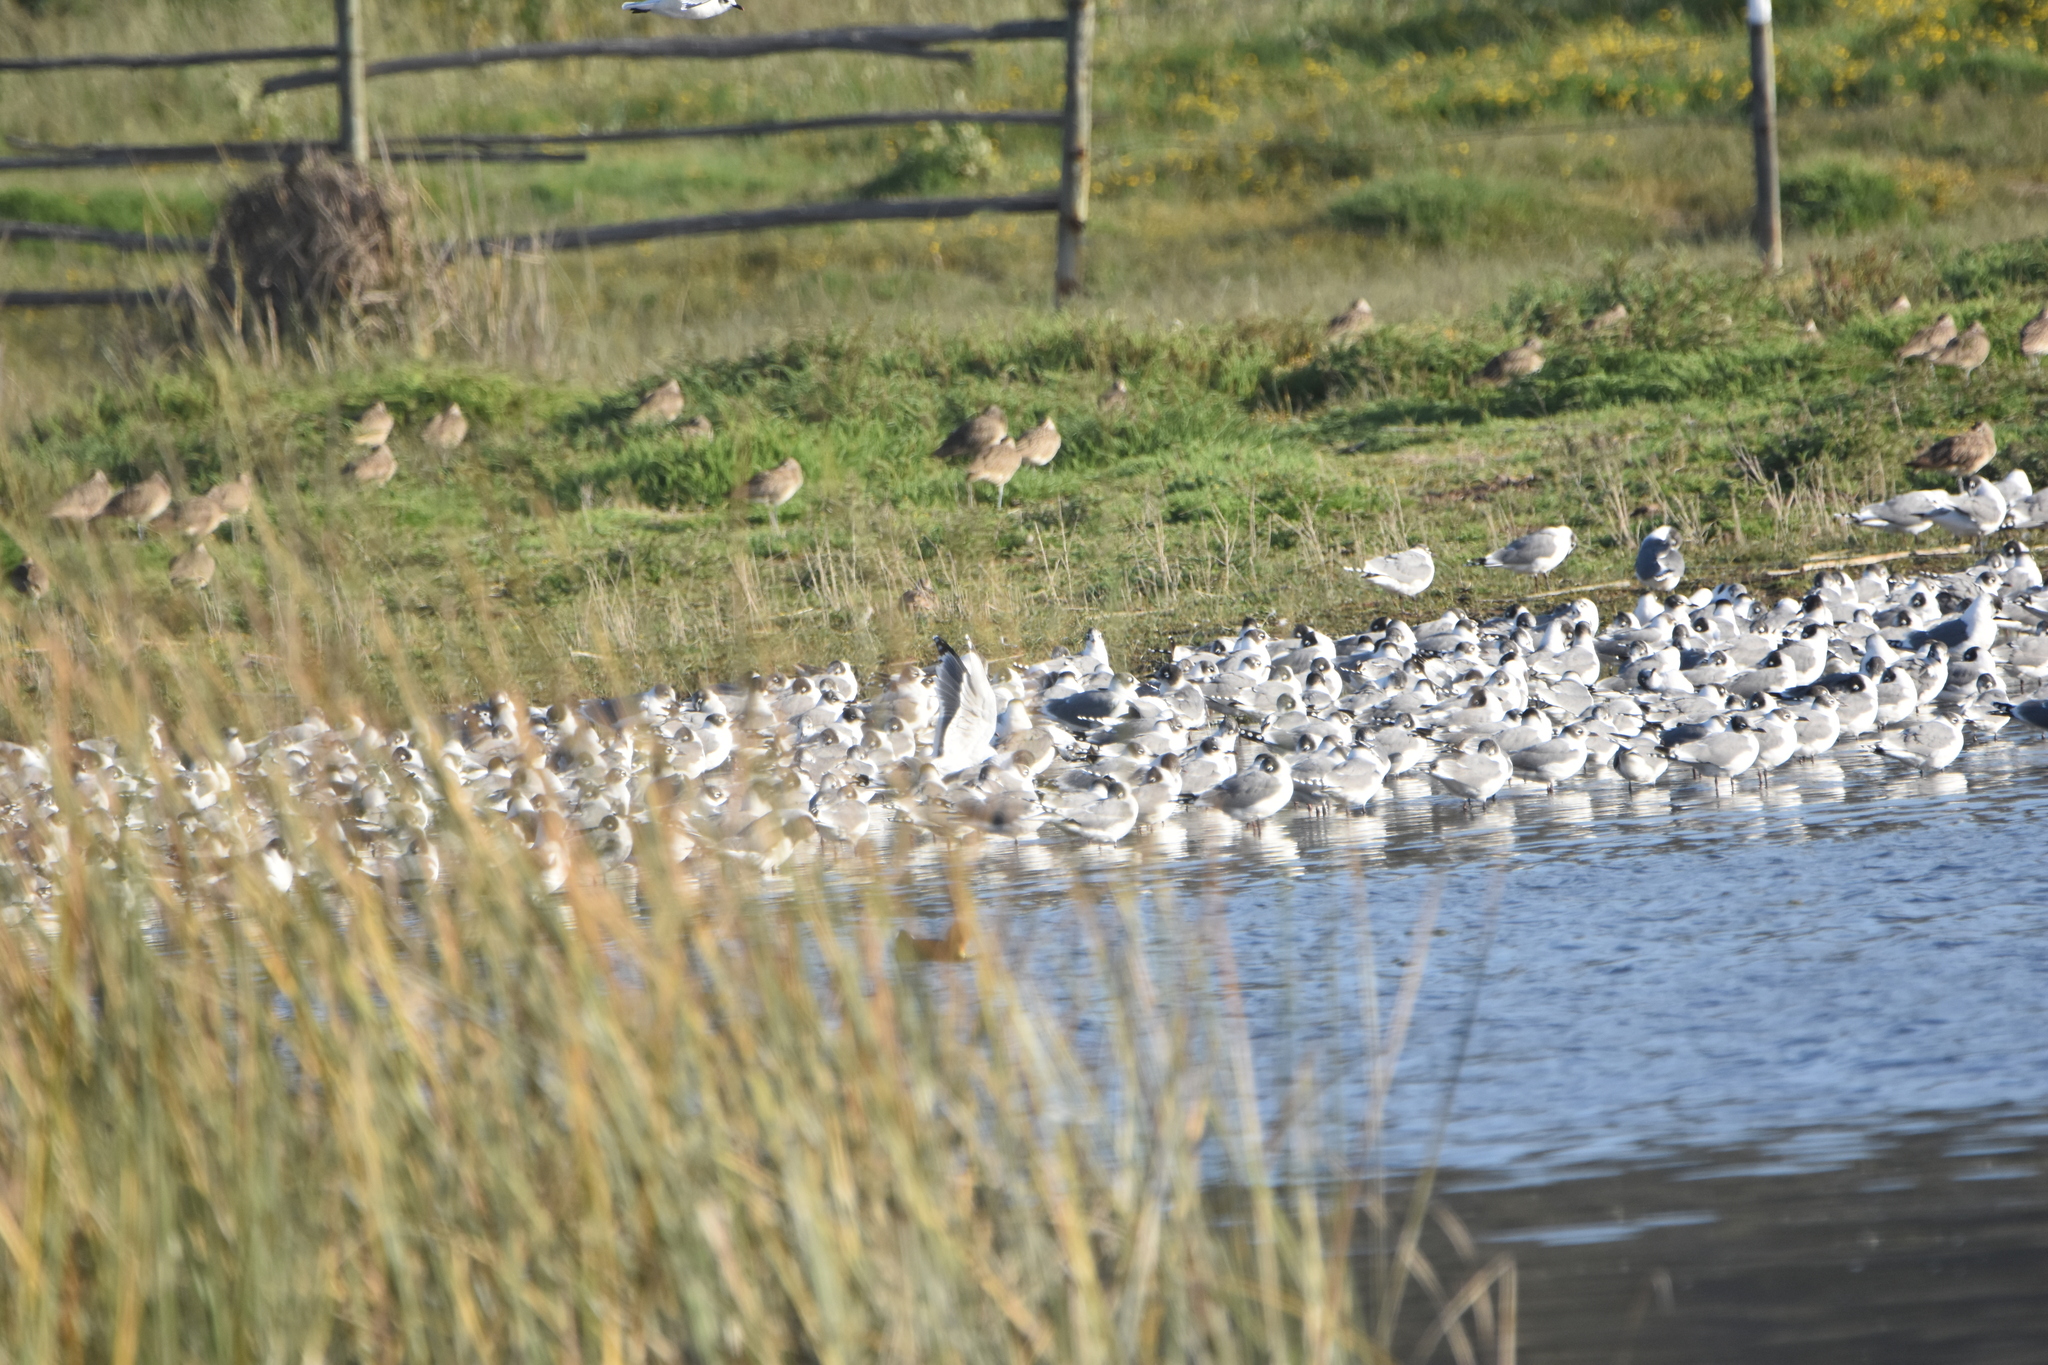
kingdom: Animalia
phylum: Chordata
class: Aves
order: Charadriiformes
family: Laridae
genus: Leucophaeus
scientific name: Leucophaeus pipixcan
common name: Franklin's gull
